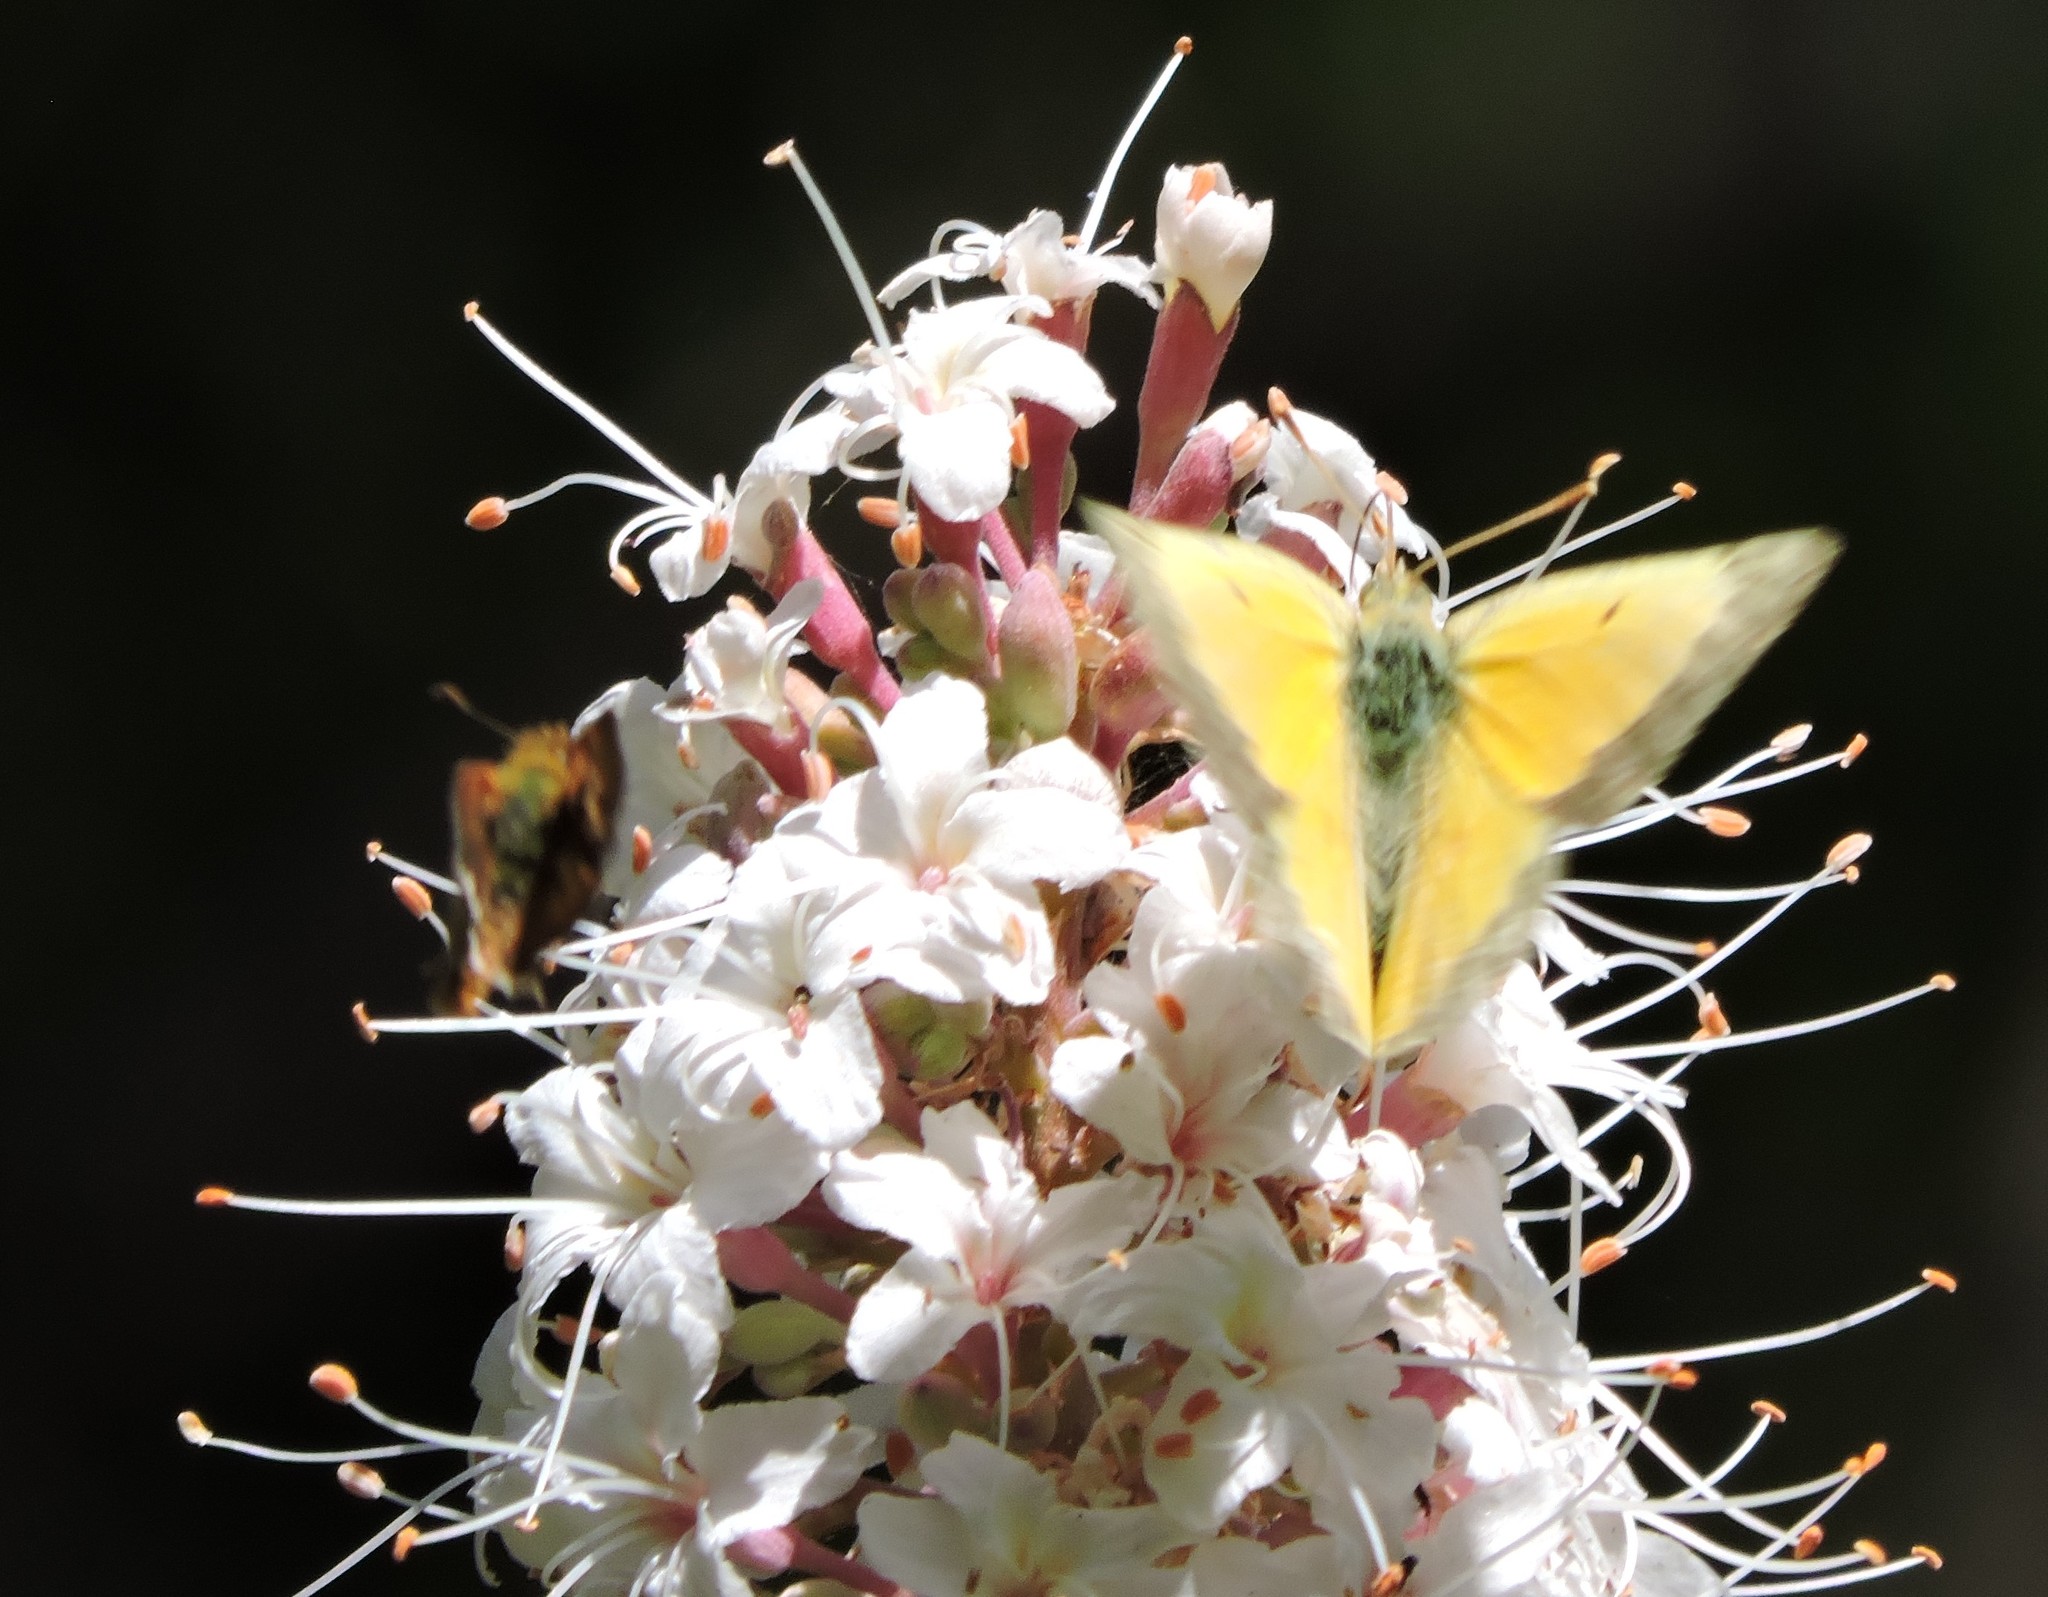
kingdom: Animalia
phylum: Arthropoda
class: Insecta
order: Lepidoptera
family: Pieridae
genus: Colias
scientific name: Colias eurytheme
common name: Alfalfa butterfly
